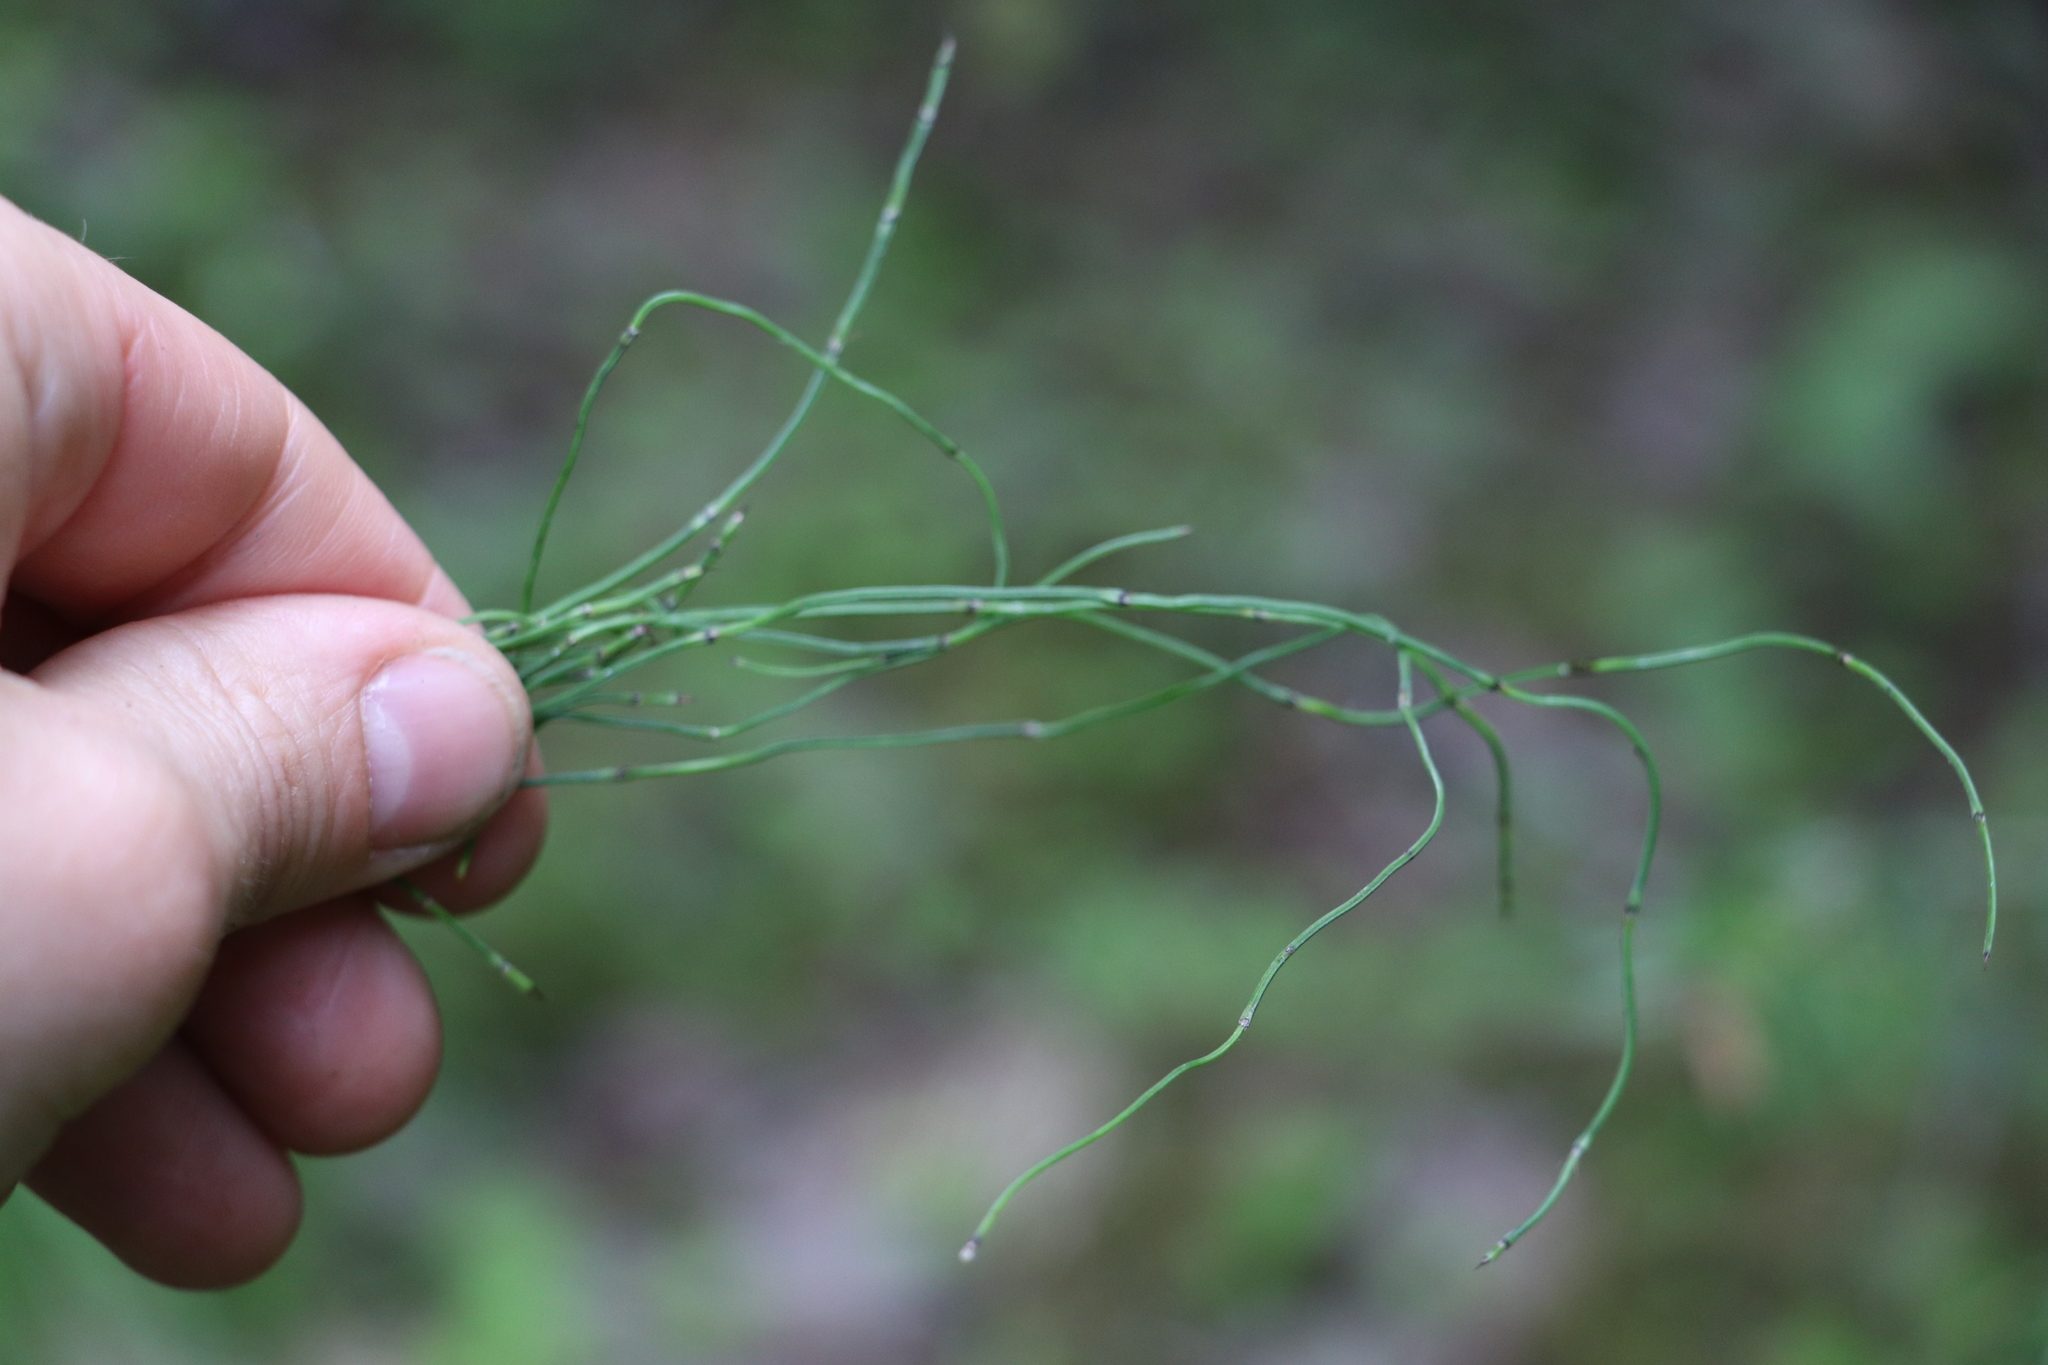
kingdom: Plantae
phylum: Tracheophyta
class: Polypodiopsida
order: Equisetales
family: Equisetaceae
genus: Equisetum
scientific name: Equisetum scirpoides
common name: Delicate horsetail
